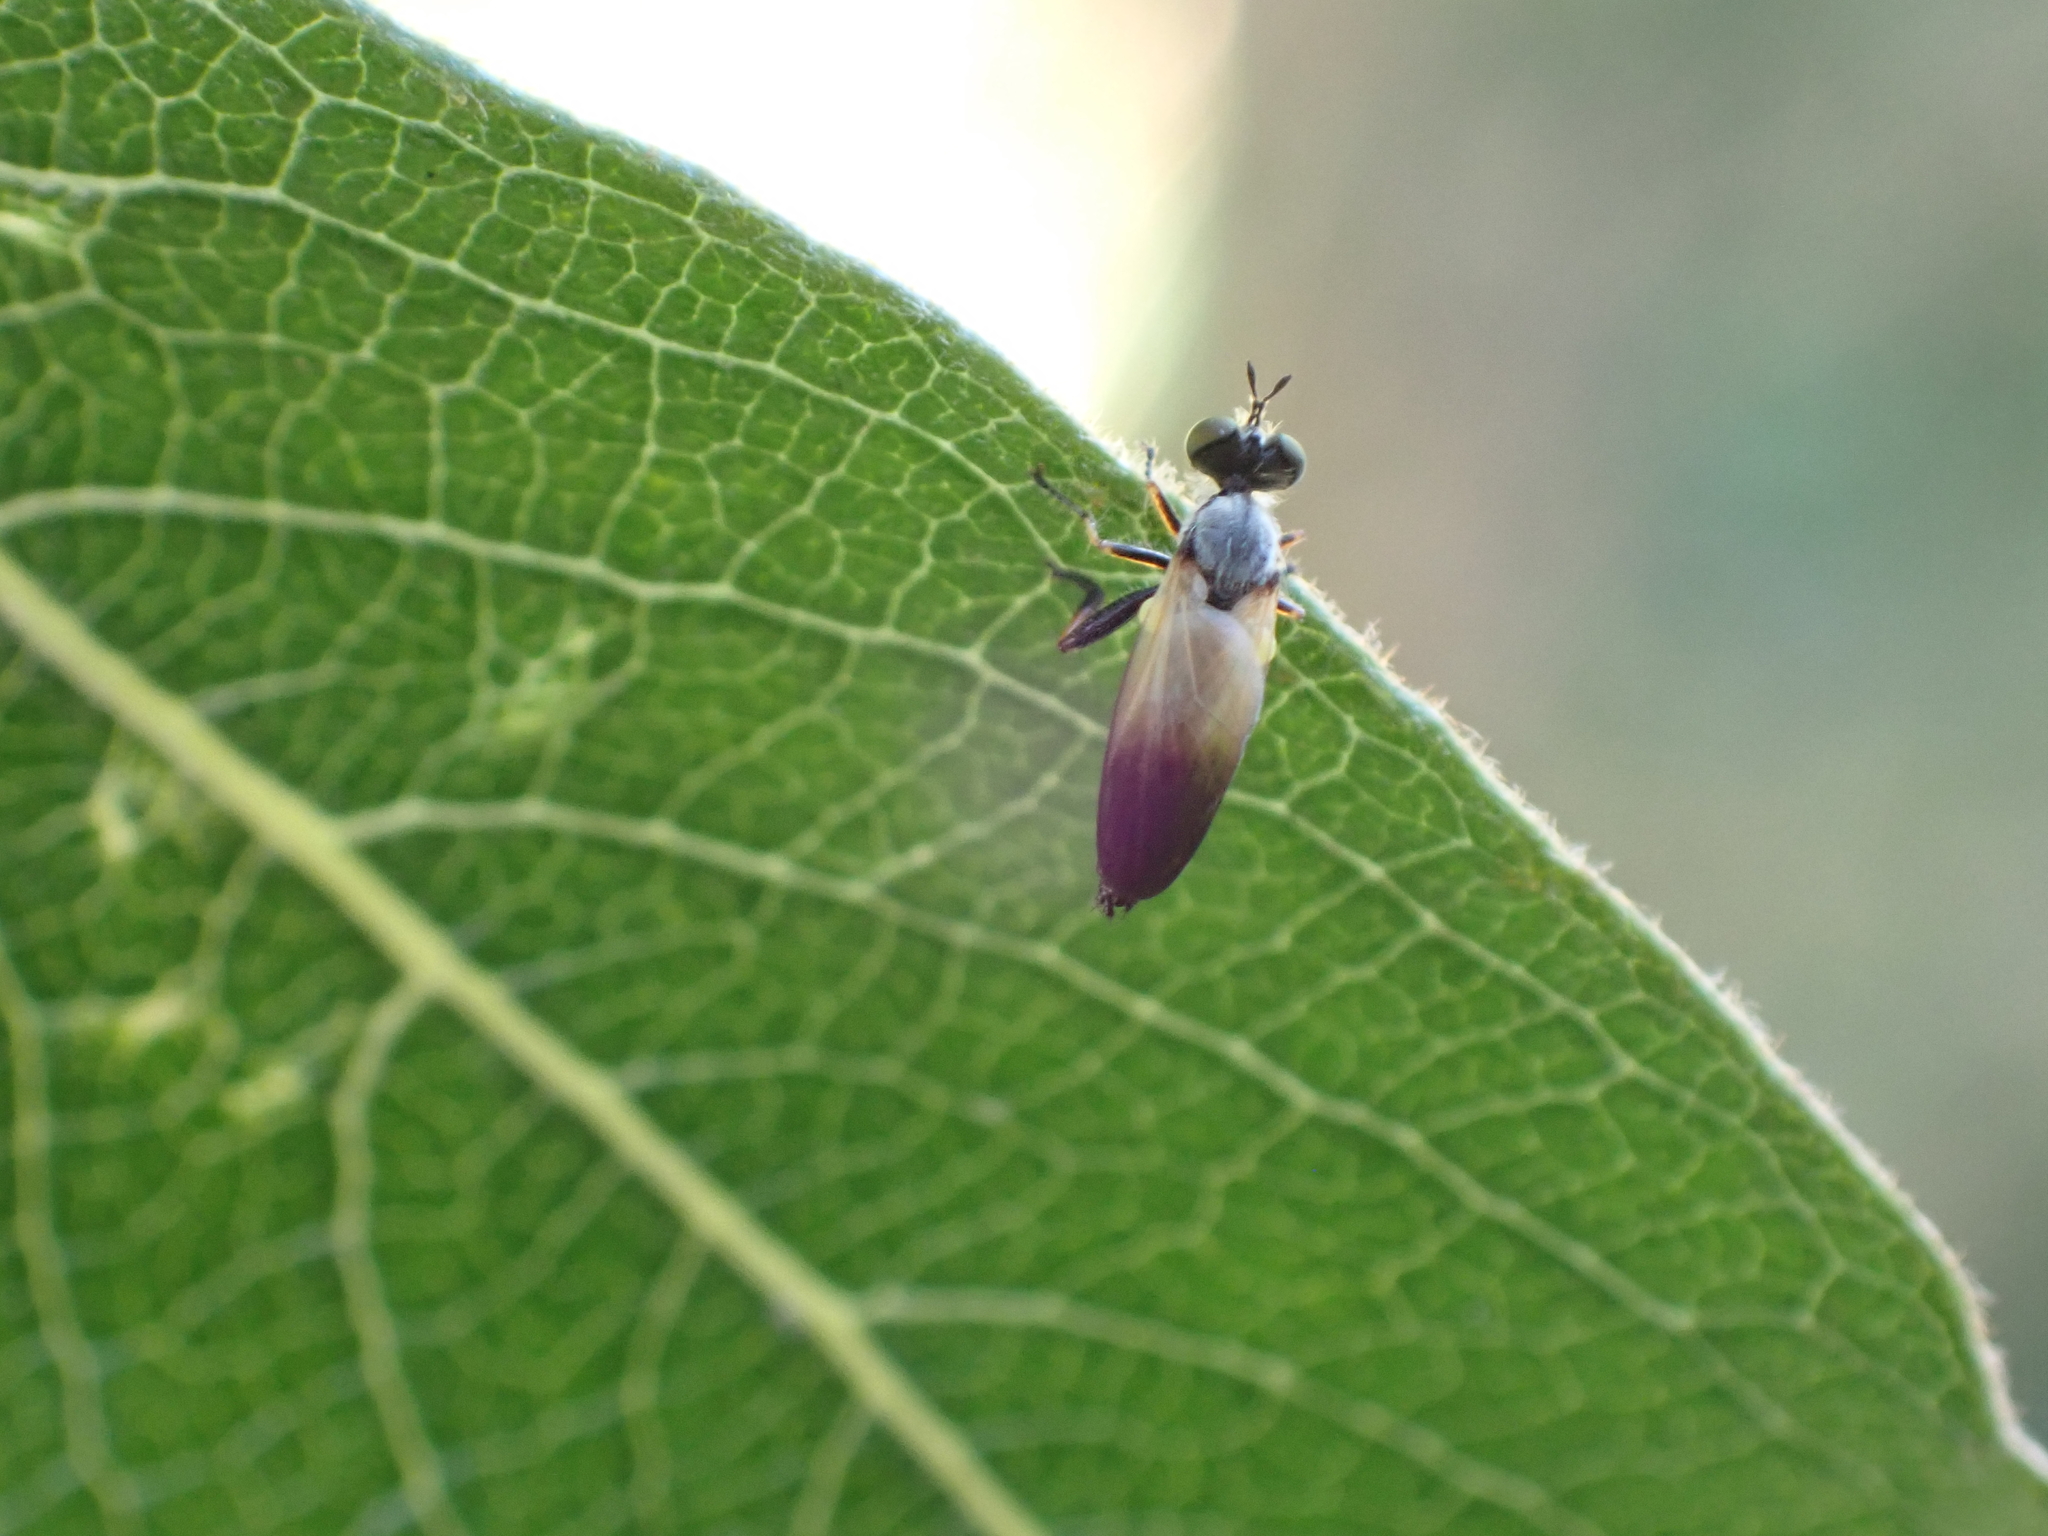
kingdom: Animalia
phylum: Arthropoda
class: Insecta
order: Diptera
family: Asilidae
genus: Eudioctria
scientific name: Eudioctria sackeni
